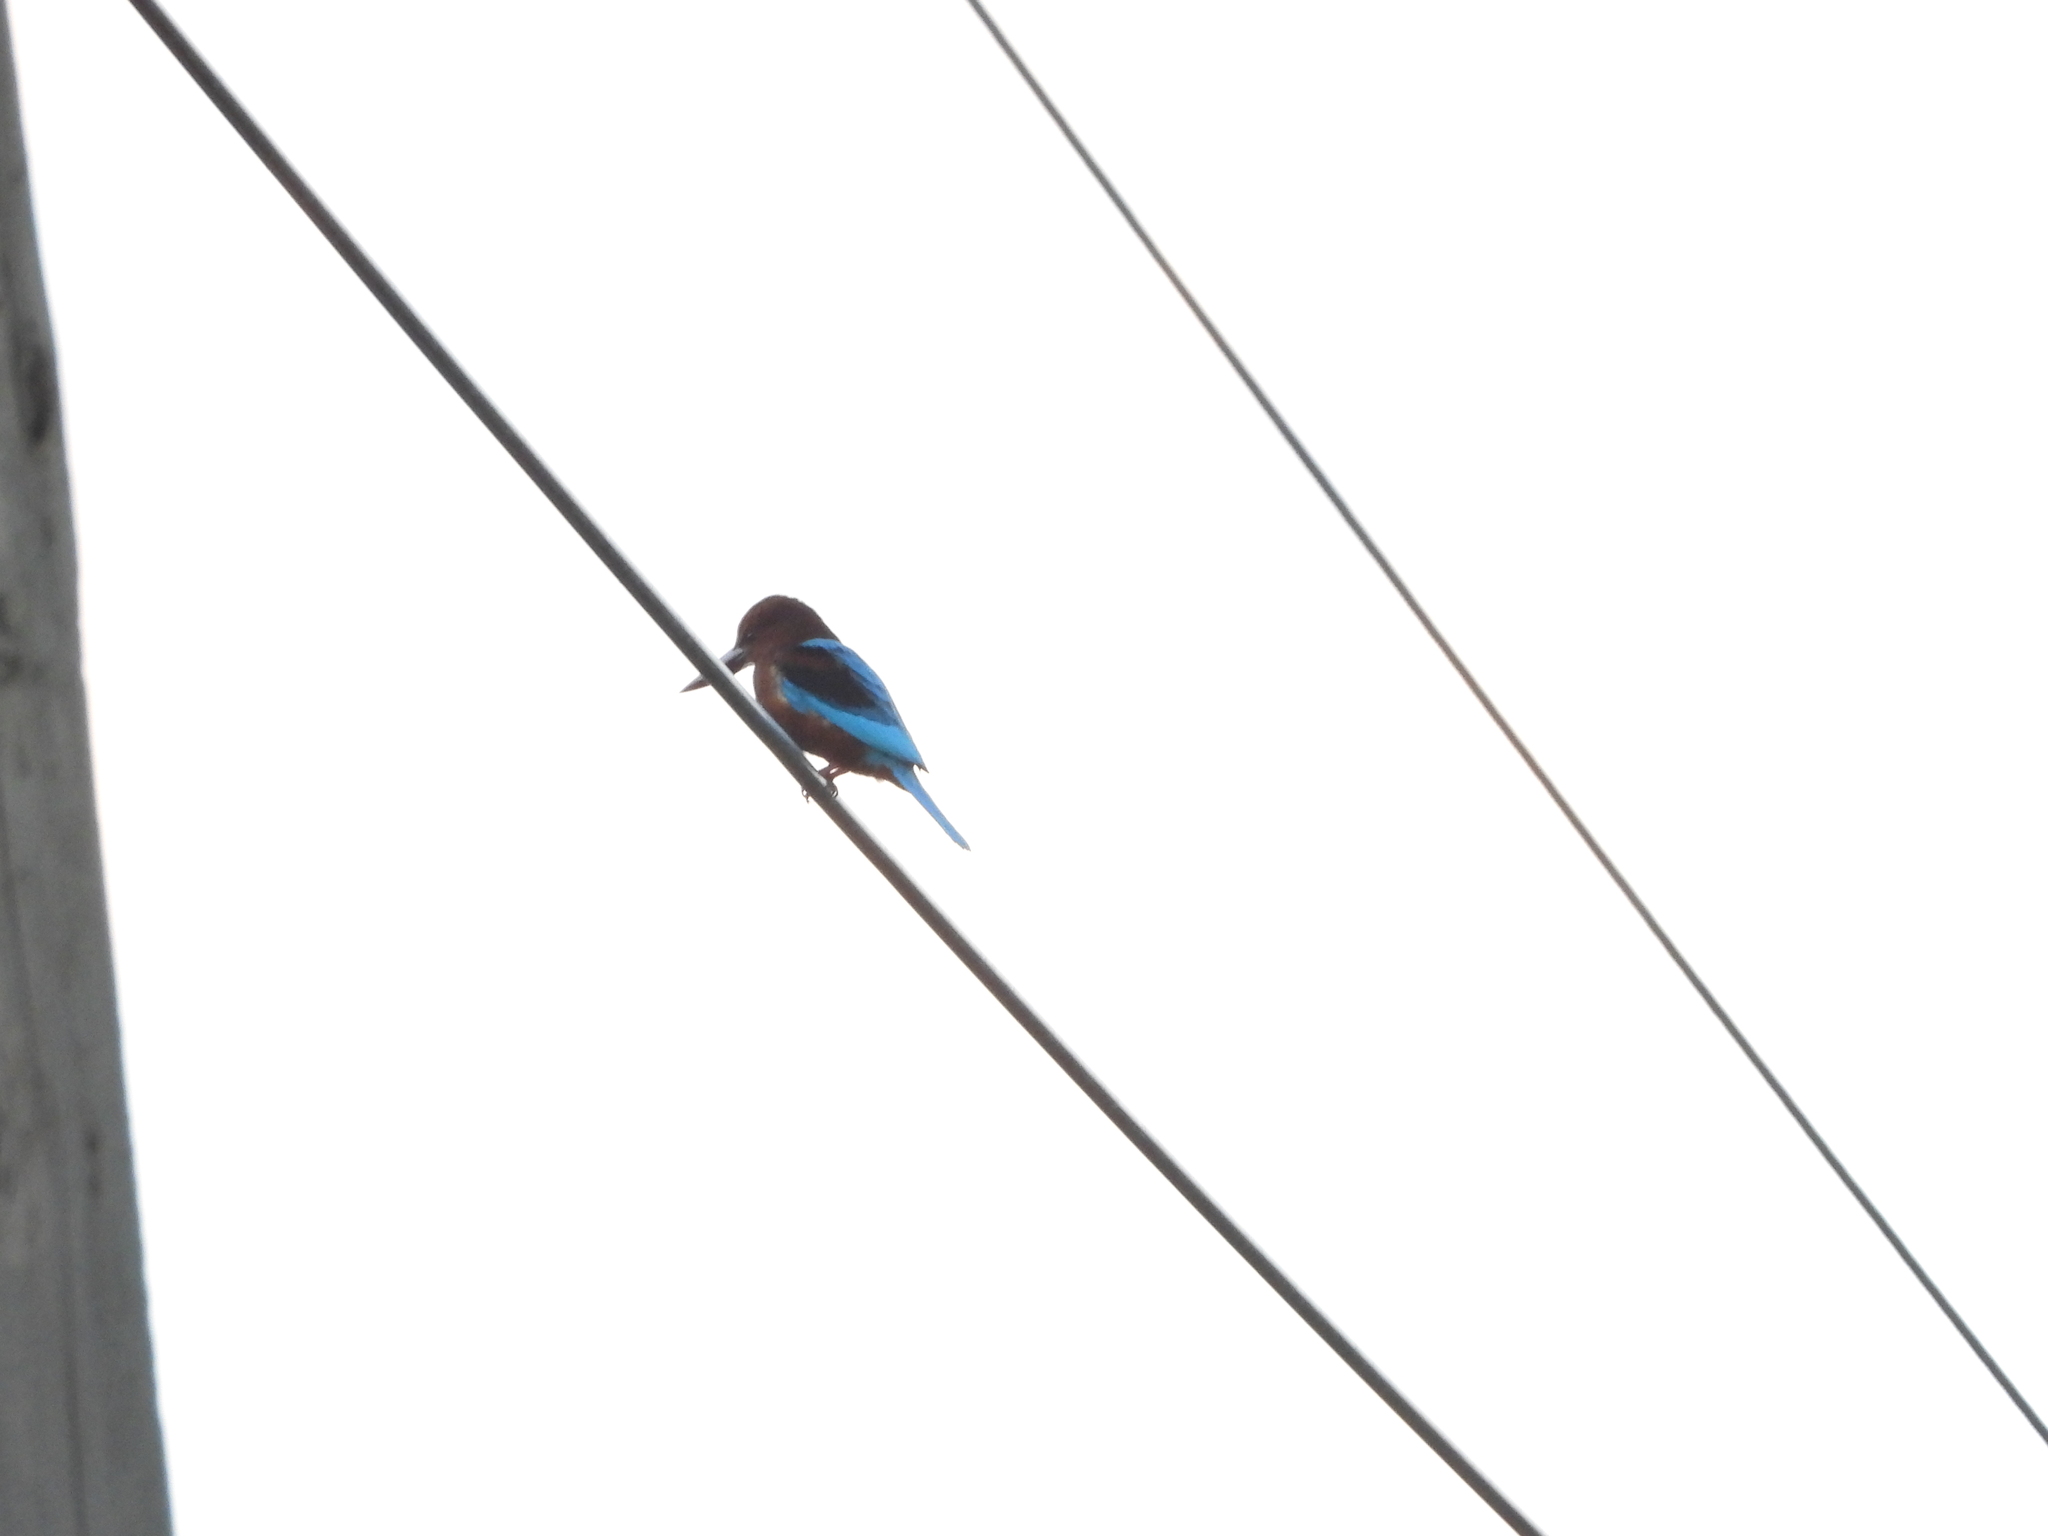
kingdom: Animalia
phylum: Chordata
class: Aves
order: Coraciiformes
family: Alcedinidae
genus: Halcyon
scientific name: Halcyon smyrnensis
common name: White-throated kingfisher
